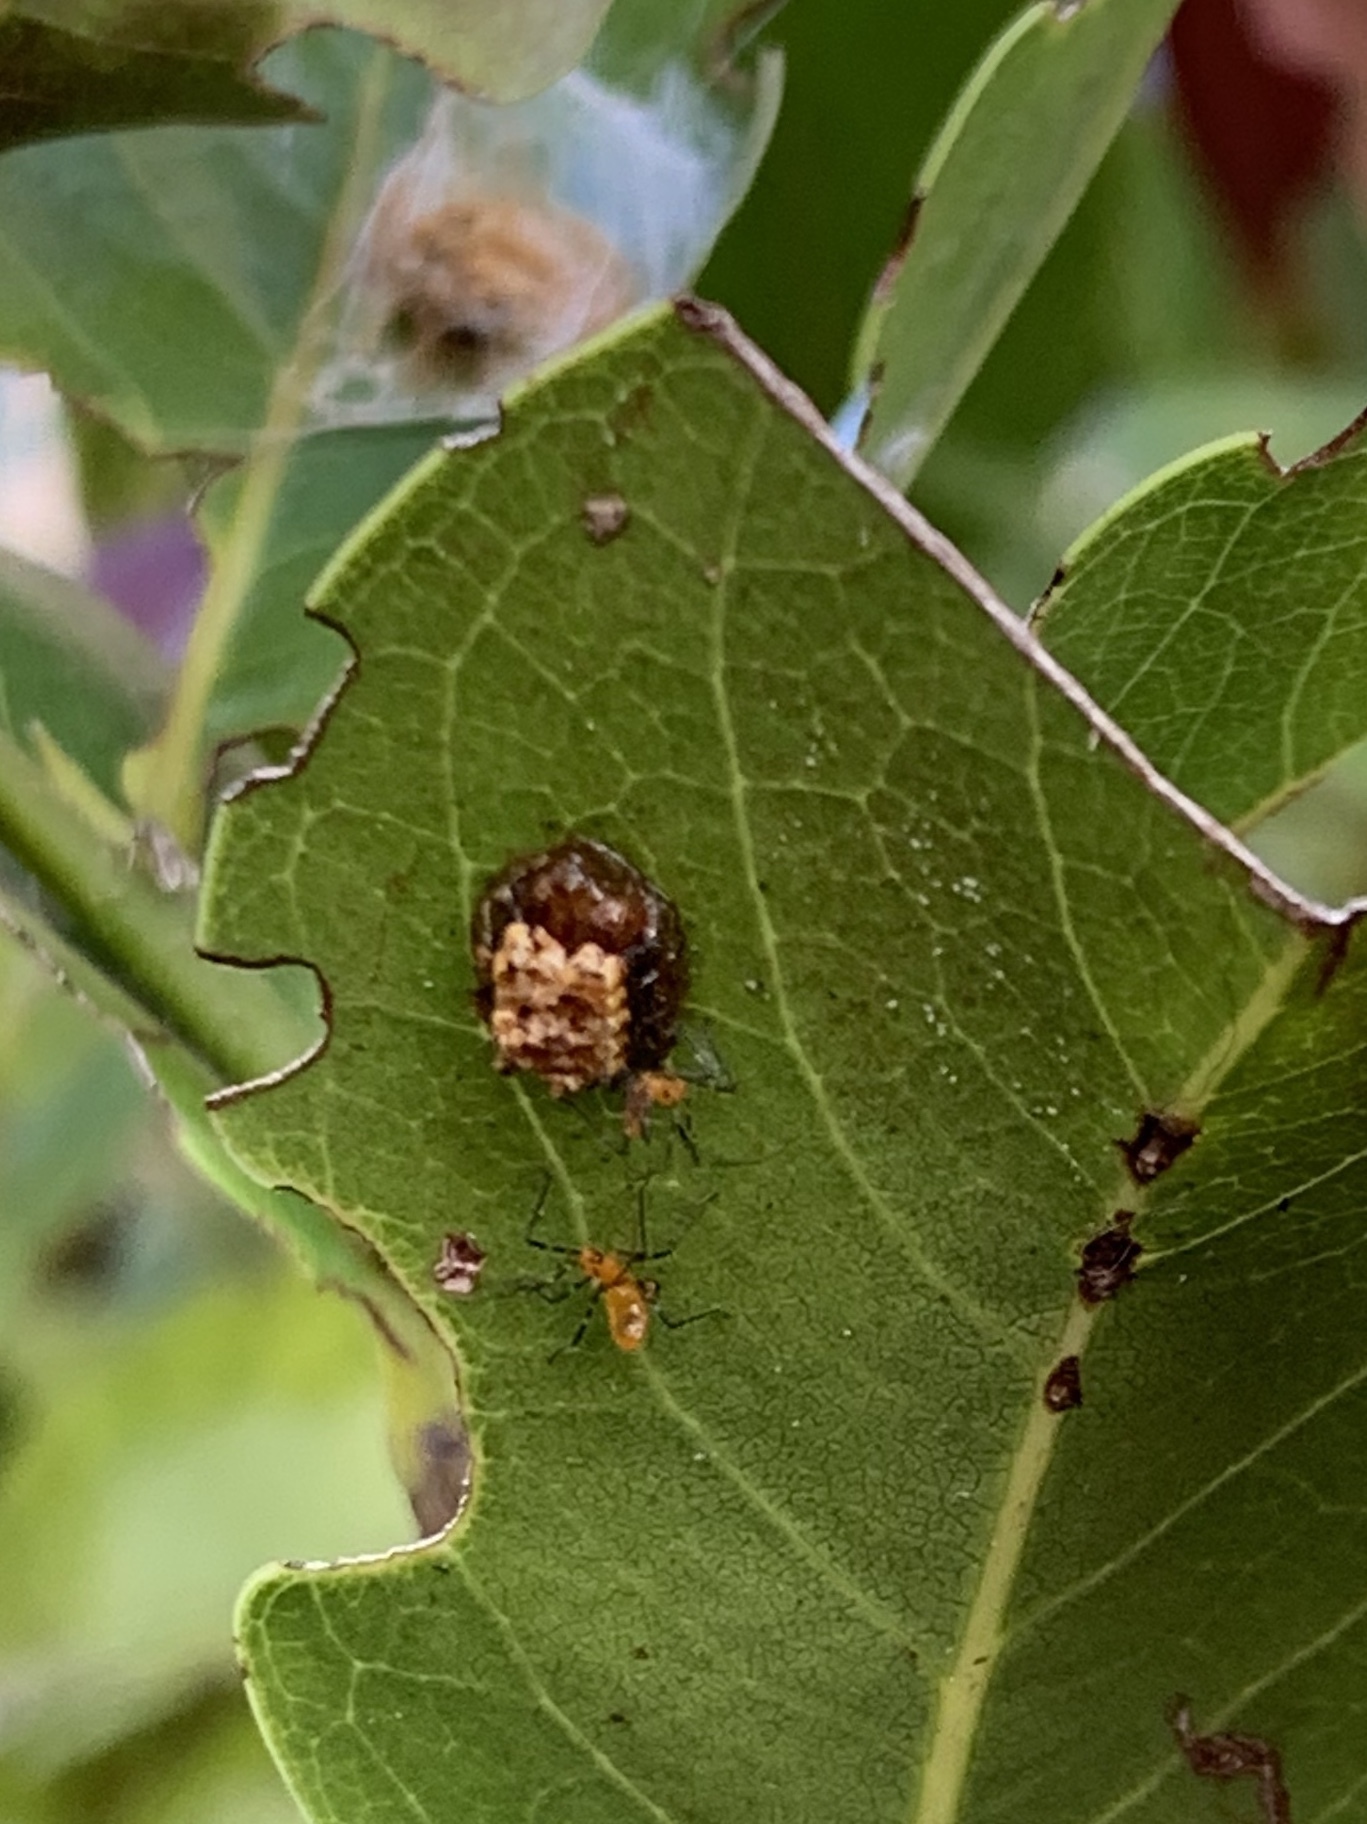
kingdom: Animalia
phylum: Arthropoda
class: Insecta
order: Hemiptera
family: Reduviidae
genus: Zelus
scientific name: Zelus longipes
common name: Milkweed assassin bug
